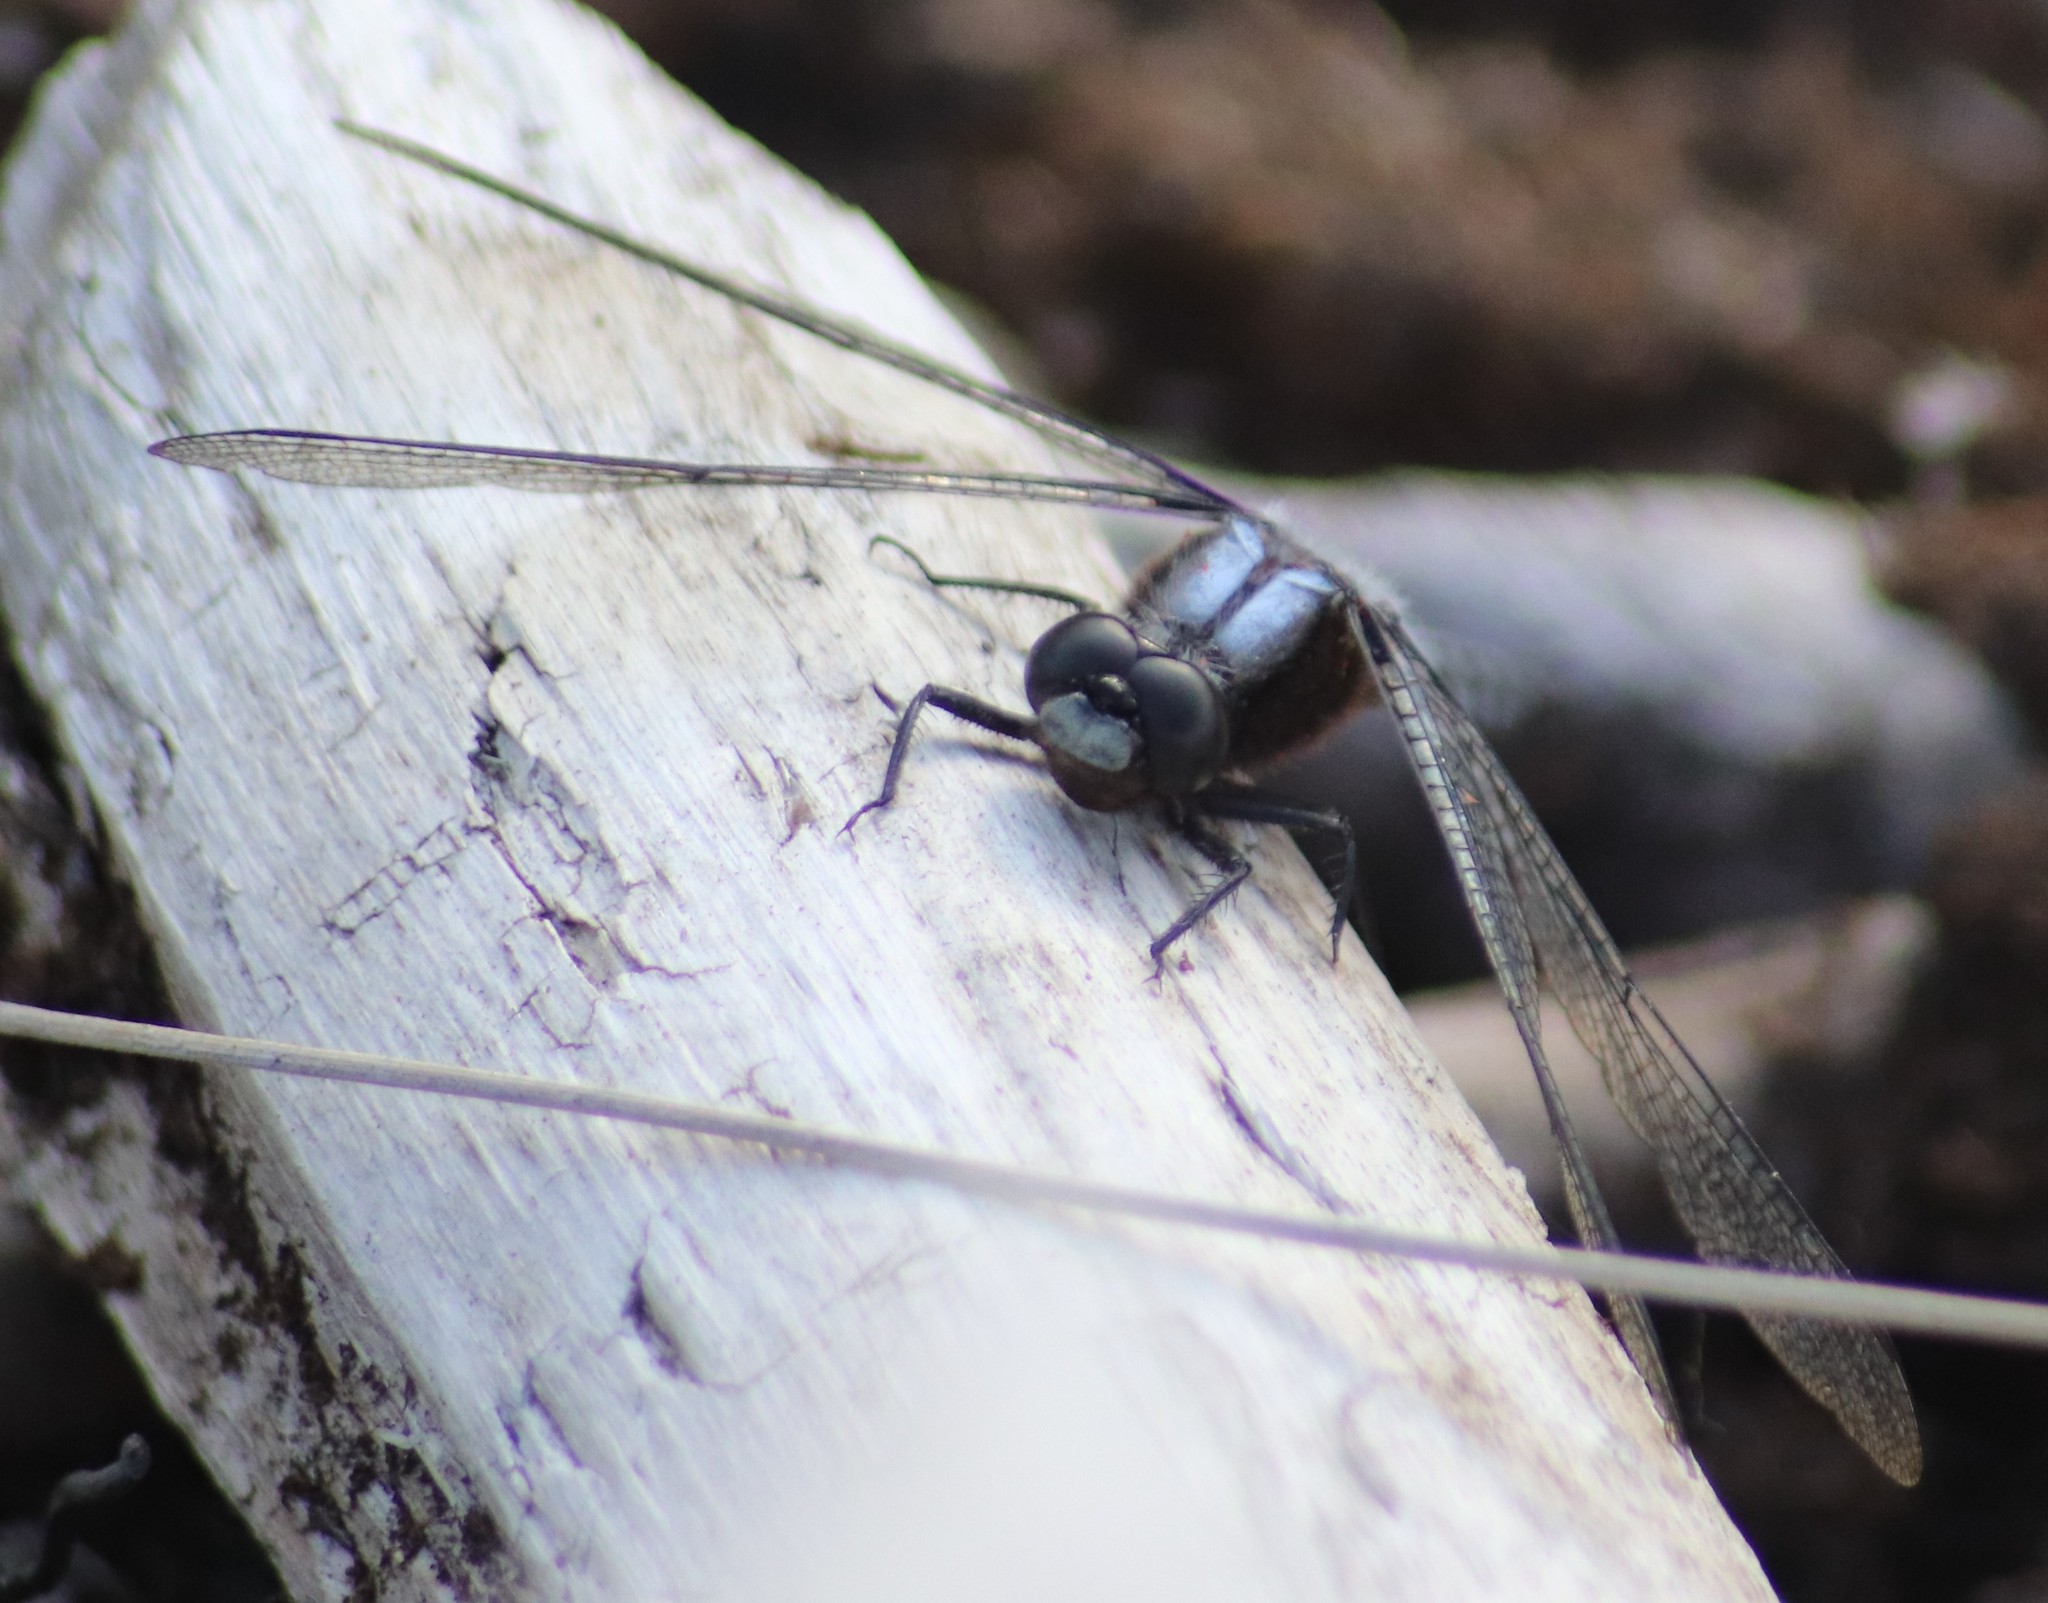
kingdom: Animalia
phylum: Arthropoda
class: Insecta
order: Odonata
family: Libellulidae
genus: Ladona
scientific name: Ladona julia
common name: Chalk-fronted corporal
